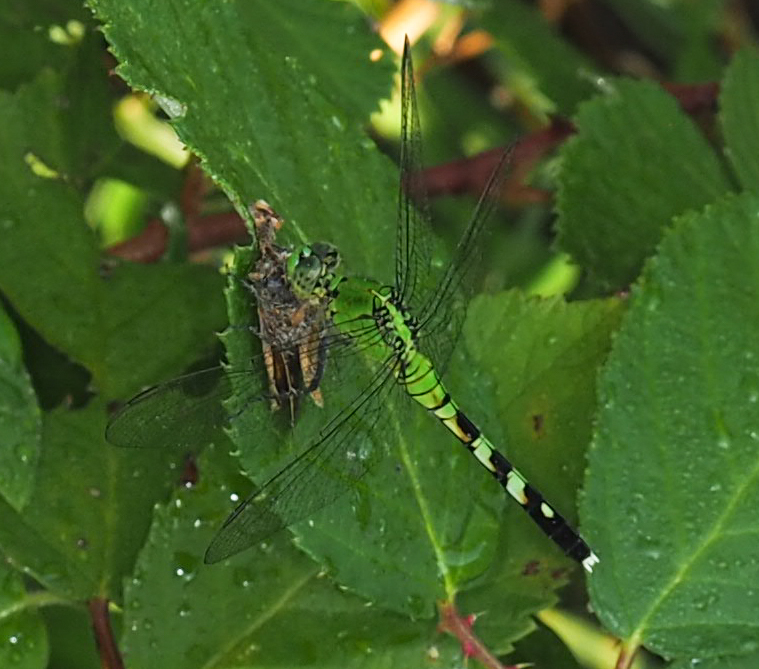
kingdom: Animalia
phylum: Arthropoda
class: Insecta
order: Odonata
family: Libellulidae
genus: Erythemis
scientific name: Erythemis simplicicollis
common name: Eastern pondhawk
